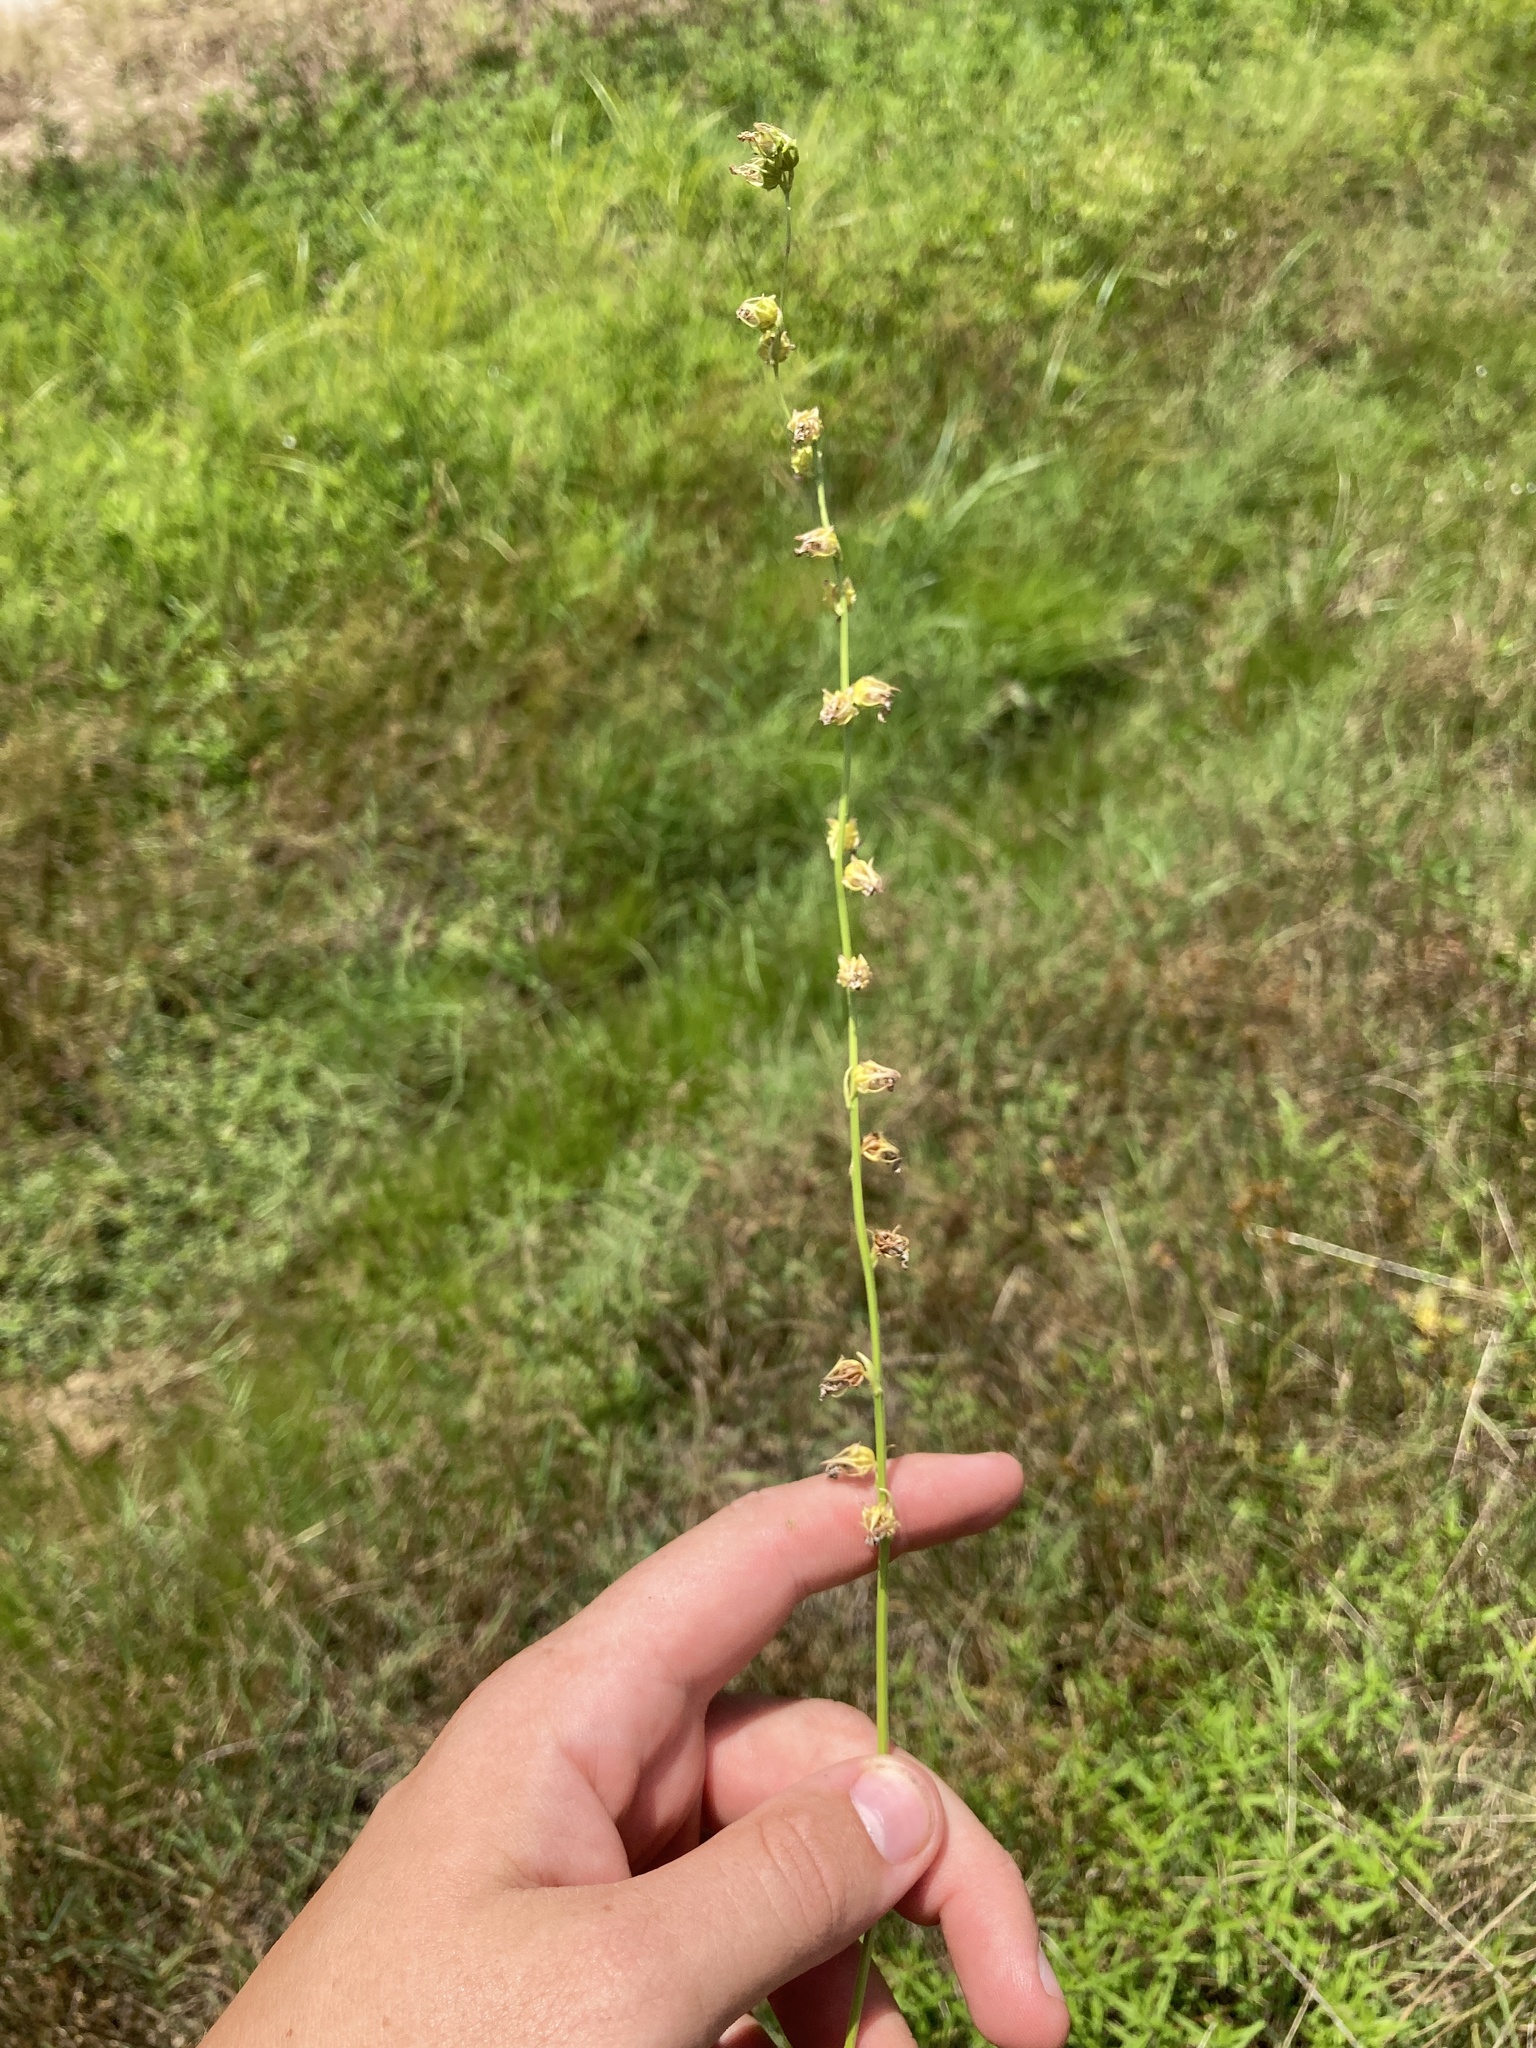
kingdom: Plantae
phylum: Tracheophyta
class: Magnoliopsida
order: Asterales
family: Campanulaceae
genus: Lobelia
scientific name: Lobelia appendiculata
